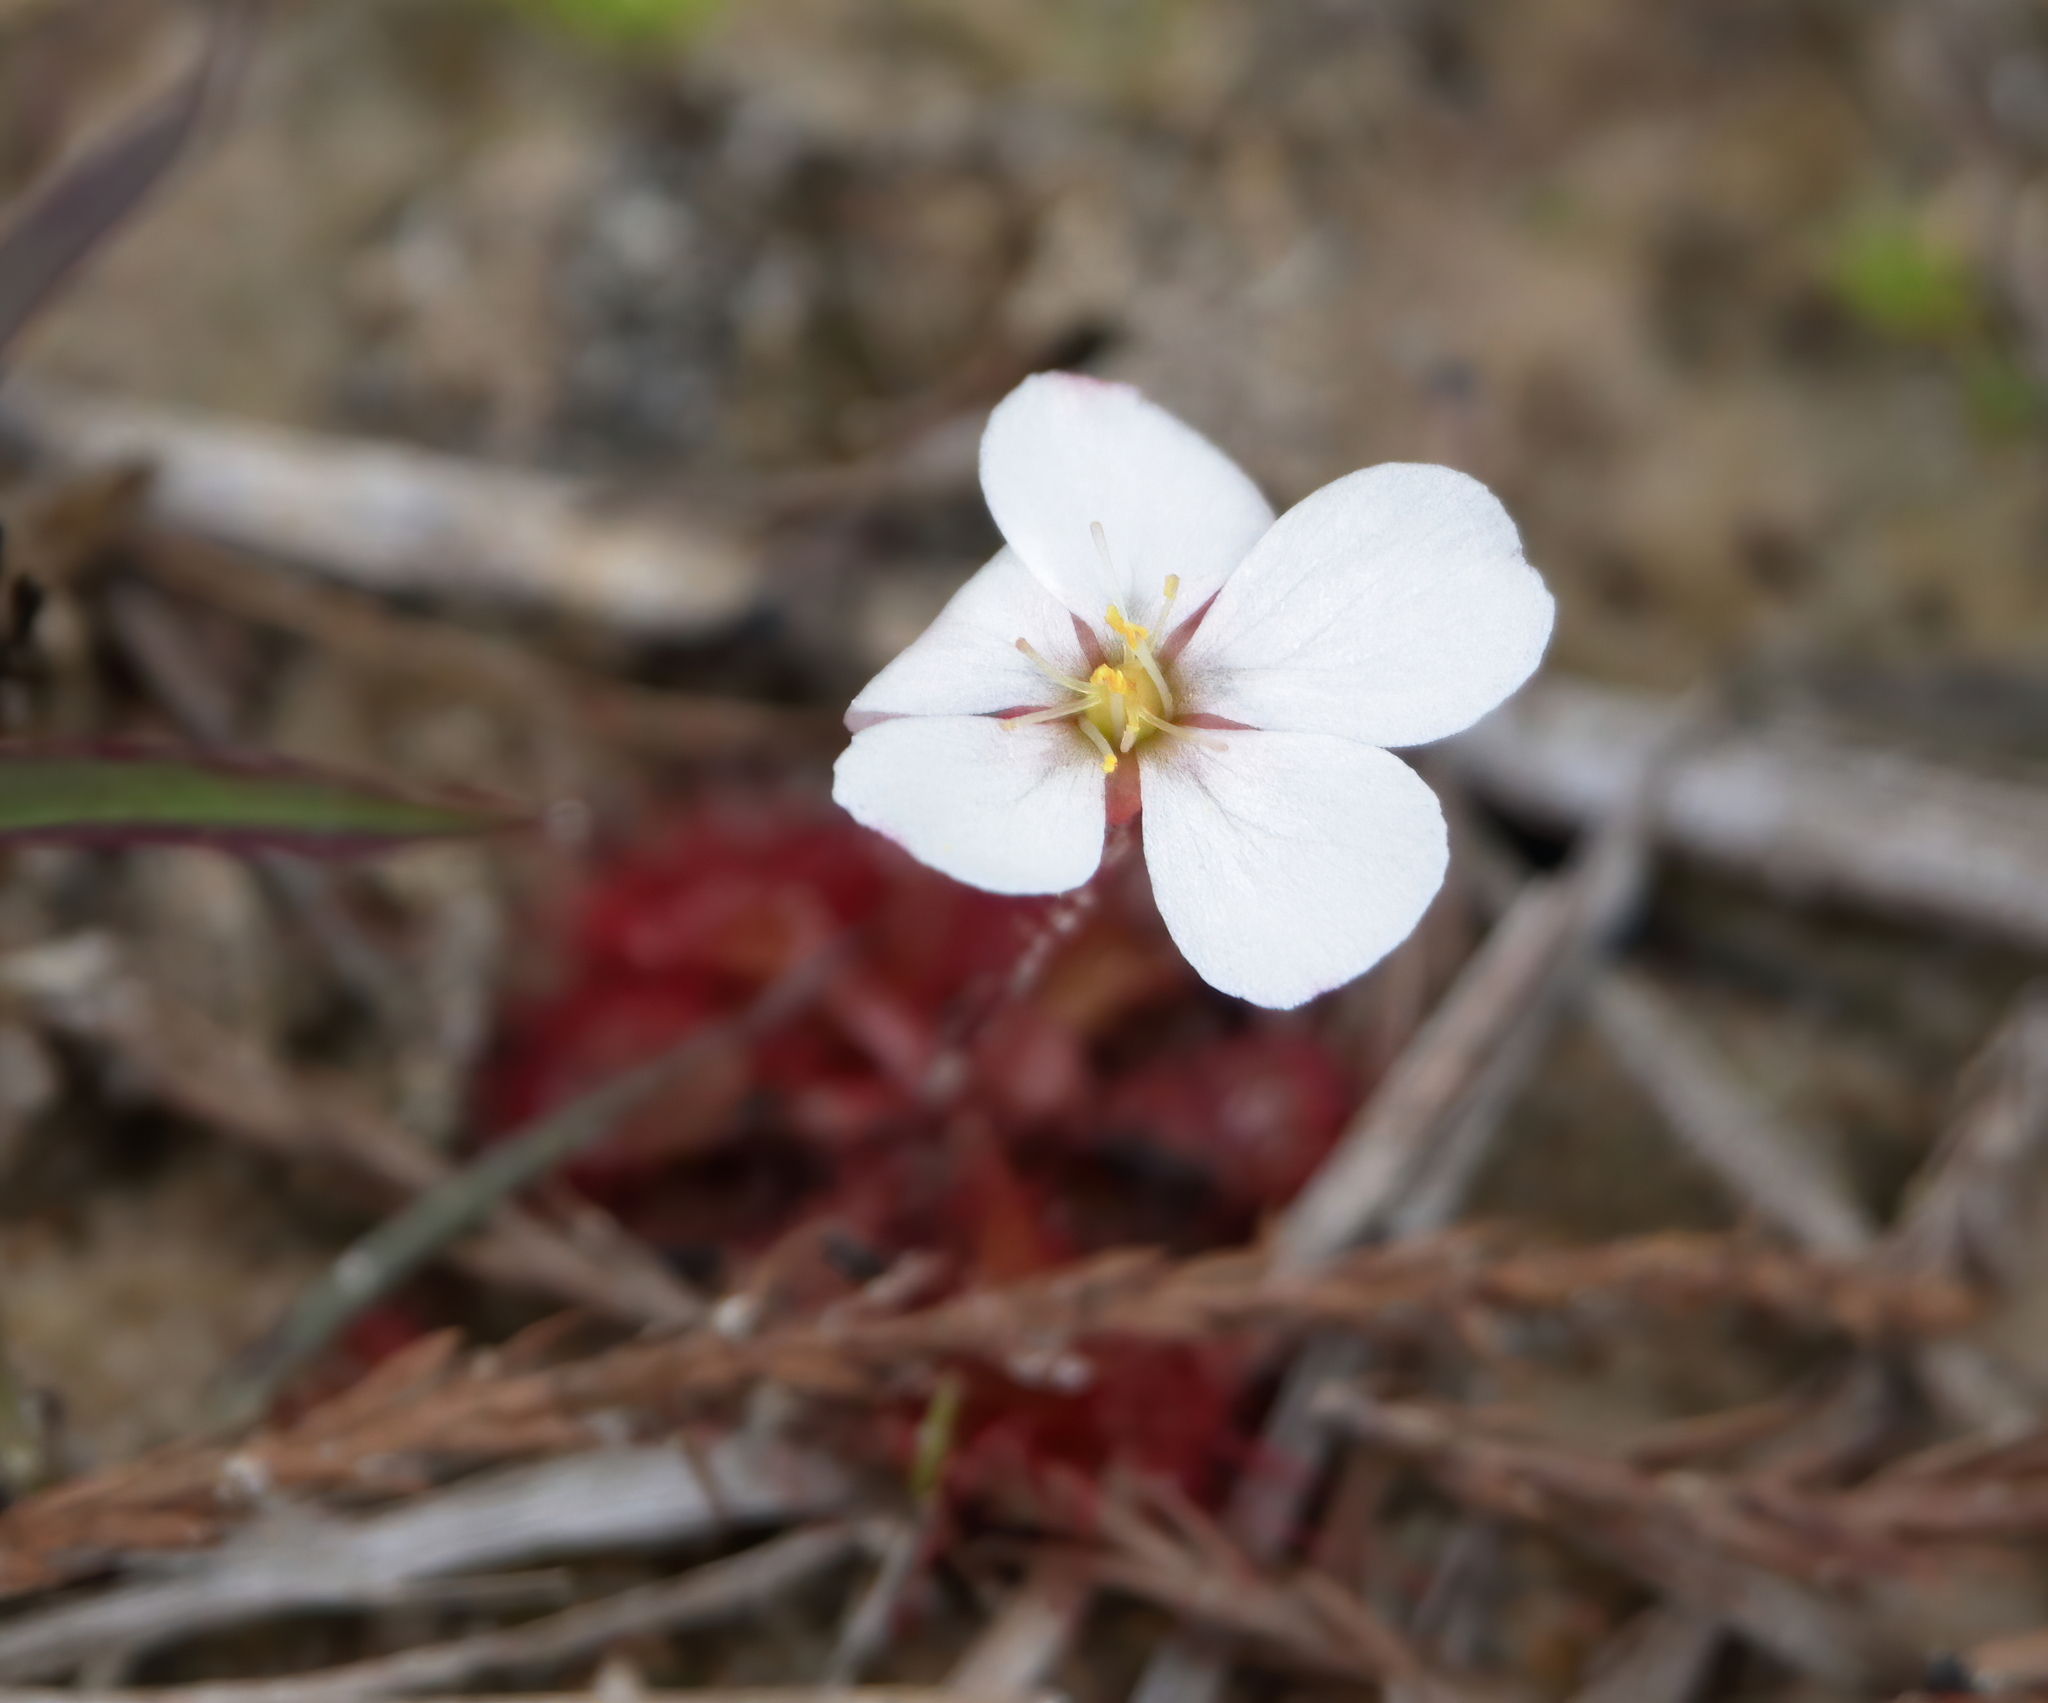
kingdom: Plantae
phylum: Tracheophyta
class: Magnoliopsida
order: Caryophyllales
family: Droseraceae
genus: Drosera
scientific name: Drosera brevifolia
